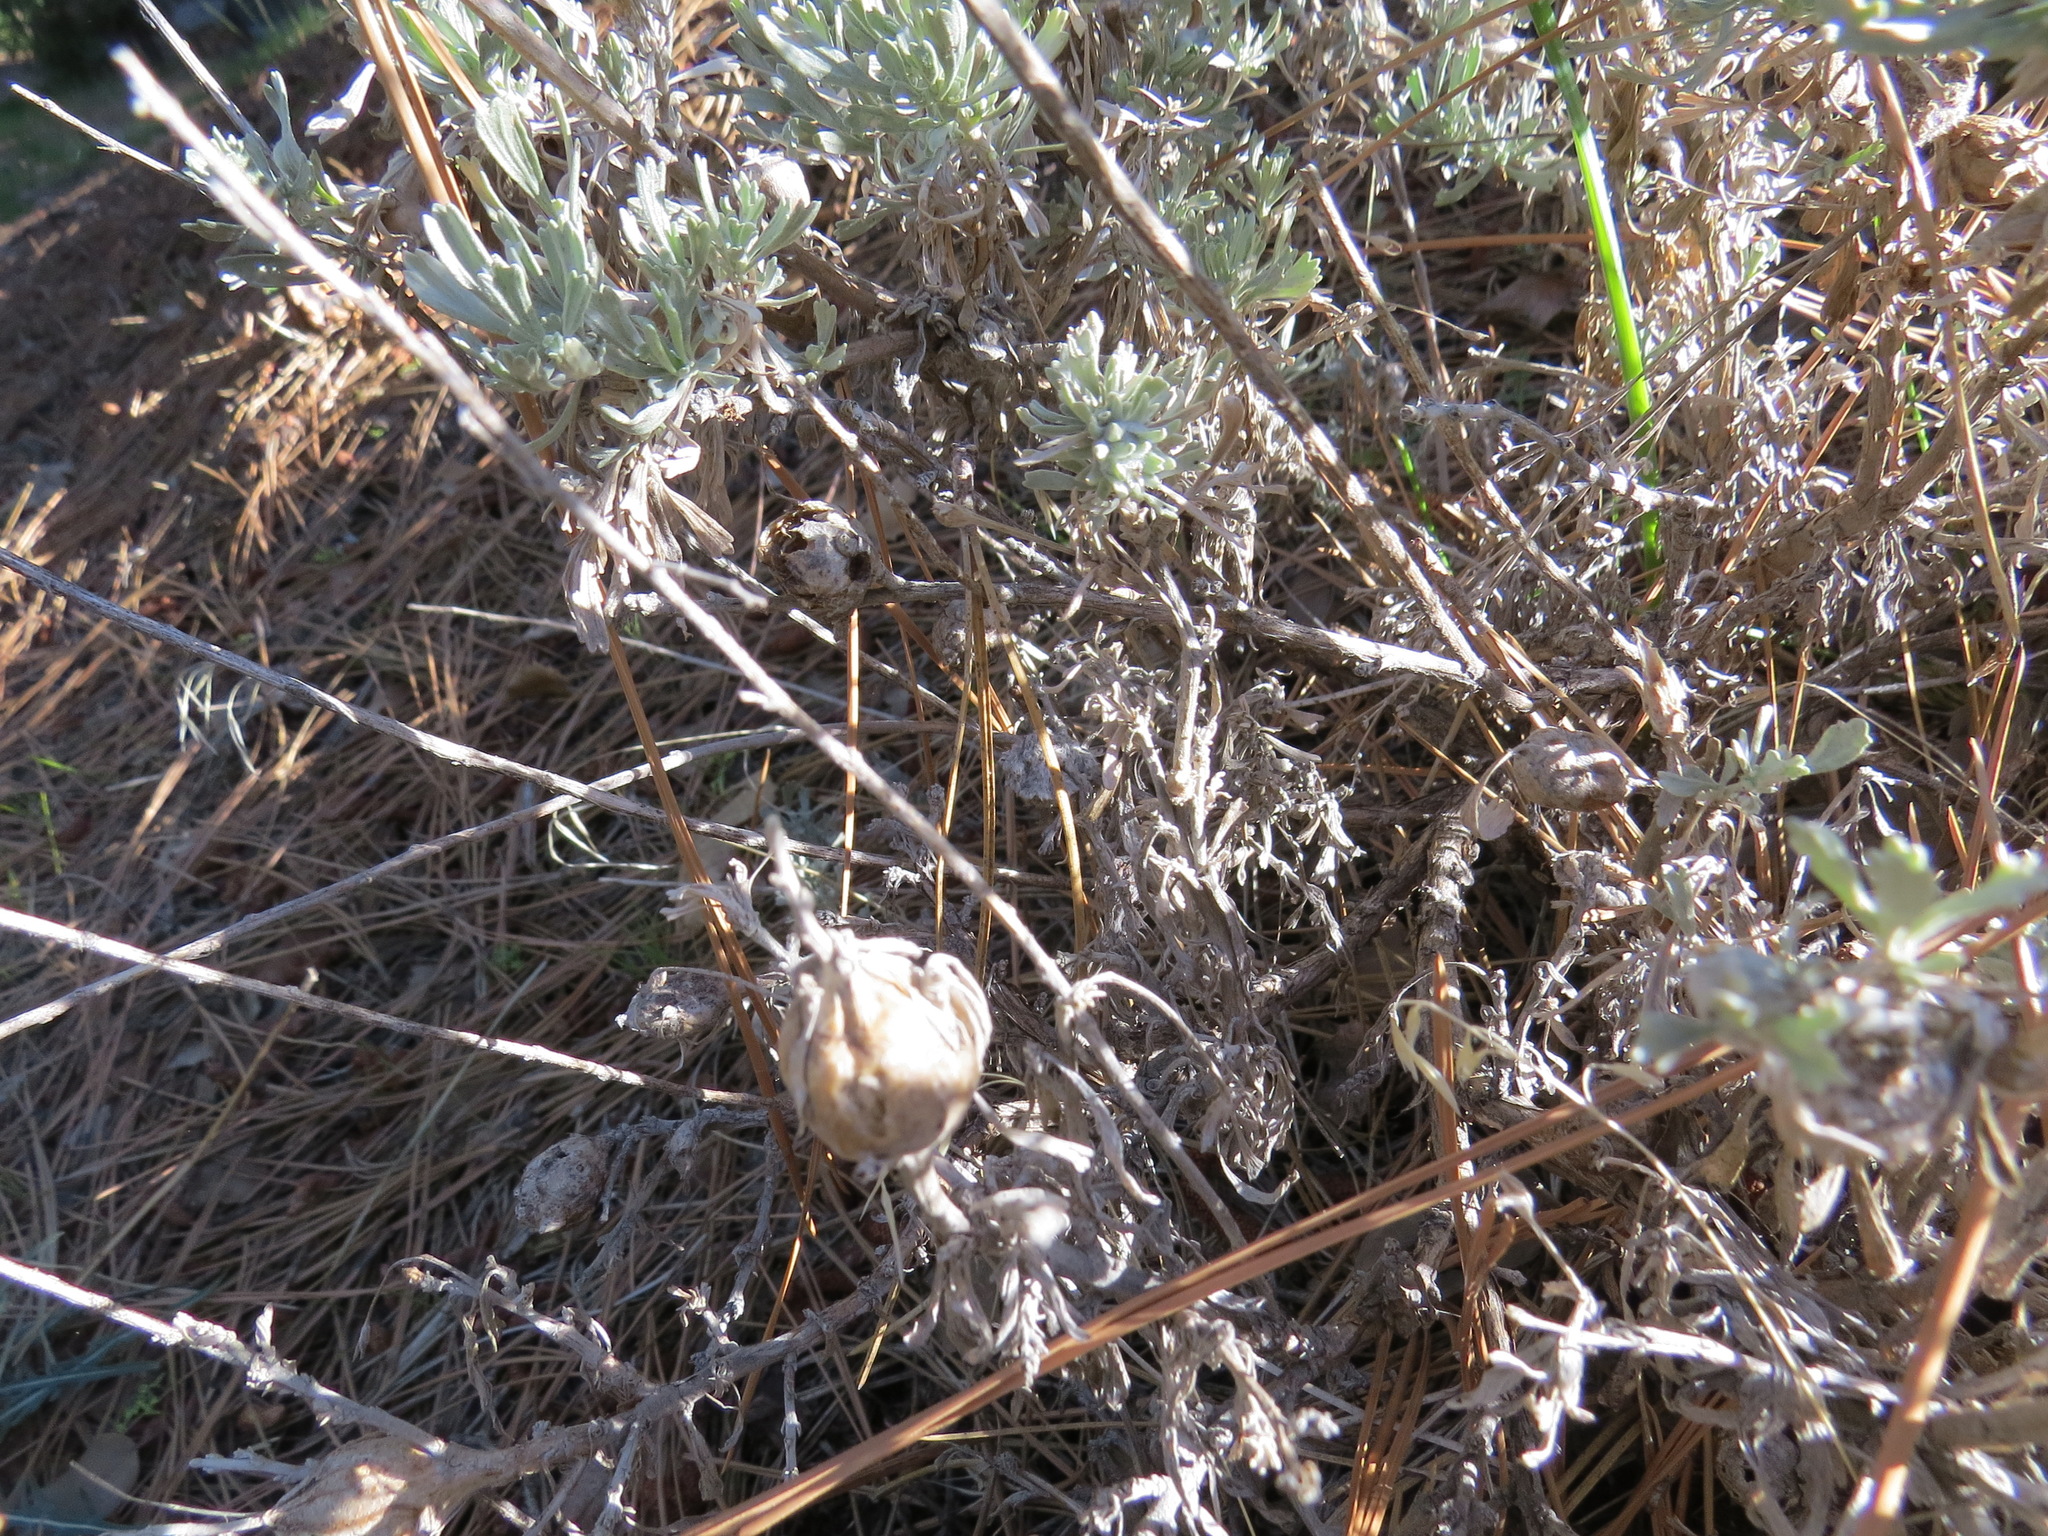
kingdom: Animalia
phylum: Arthropoda
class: Insecta
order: Diptera
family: Tephritidae
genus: Eutreta
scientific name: Eutreta diana
